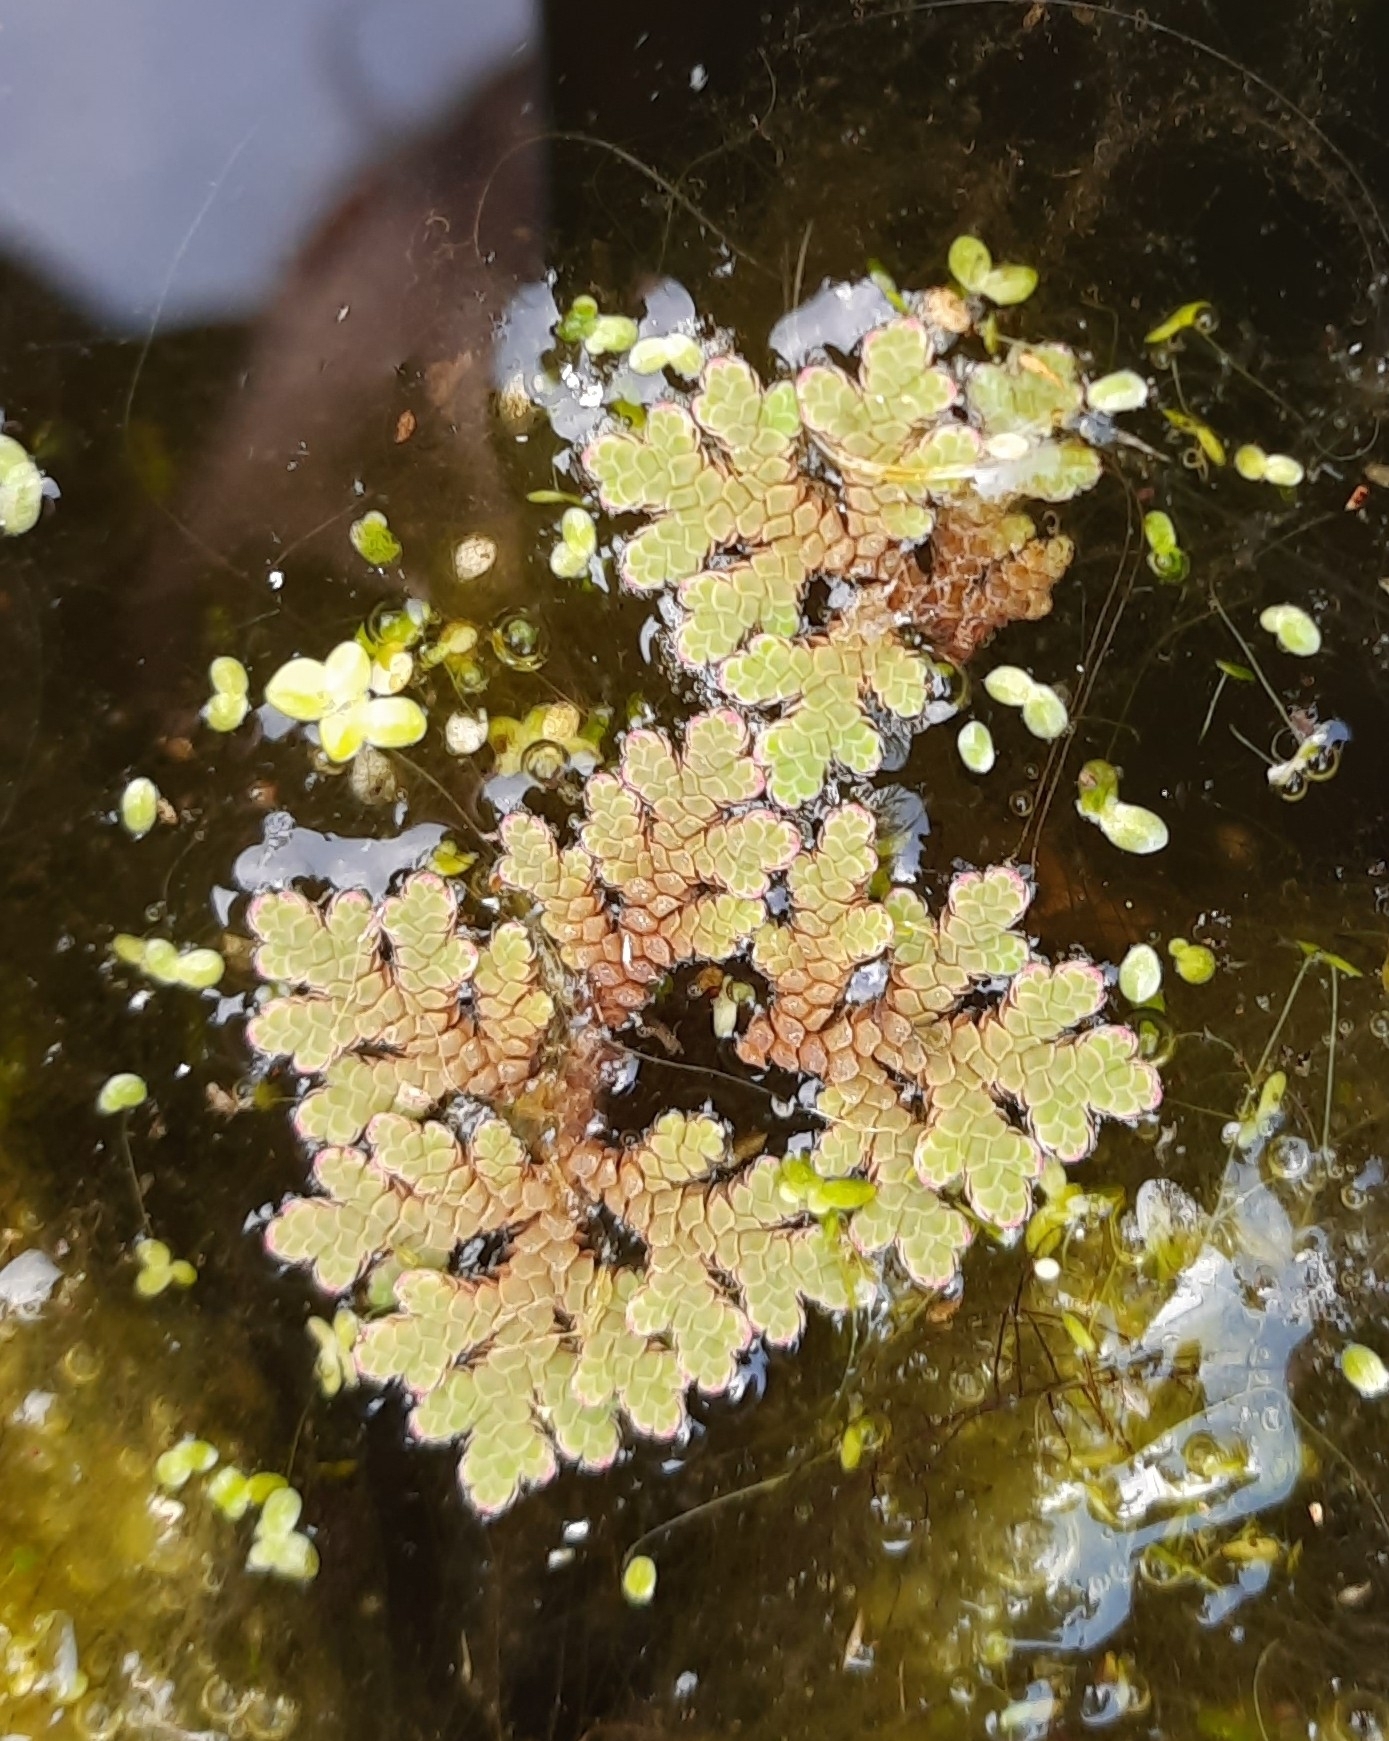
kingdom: Plantae
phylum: Tracheophyta
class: Polypodiopsida
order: Salviniales
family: Salviniaceae
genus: Azolla
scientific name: Azolla rubra
